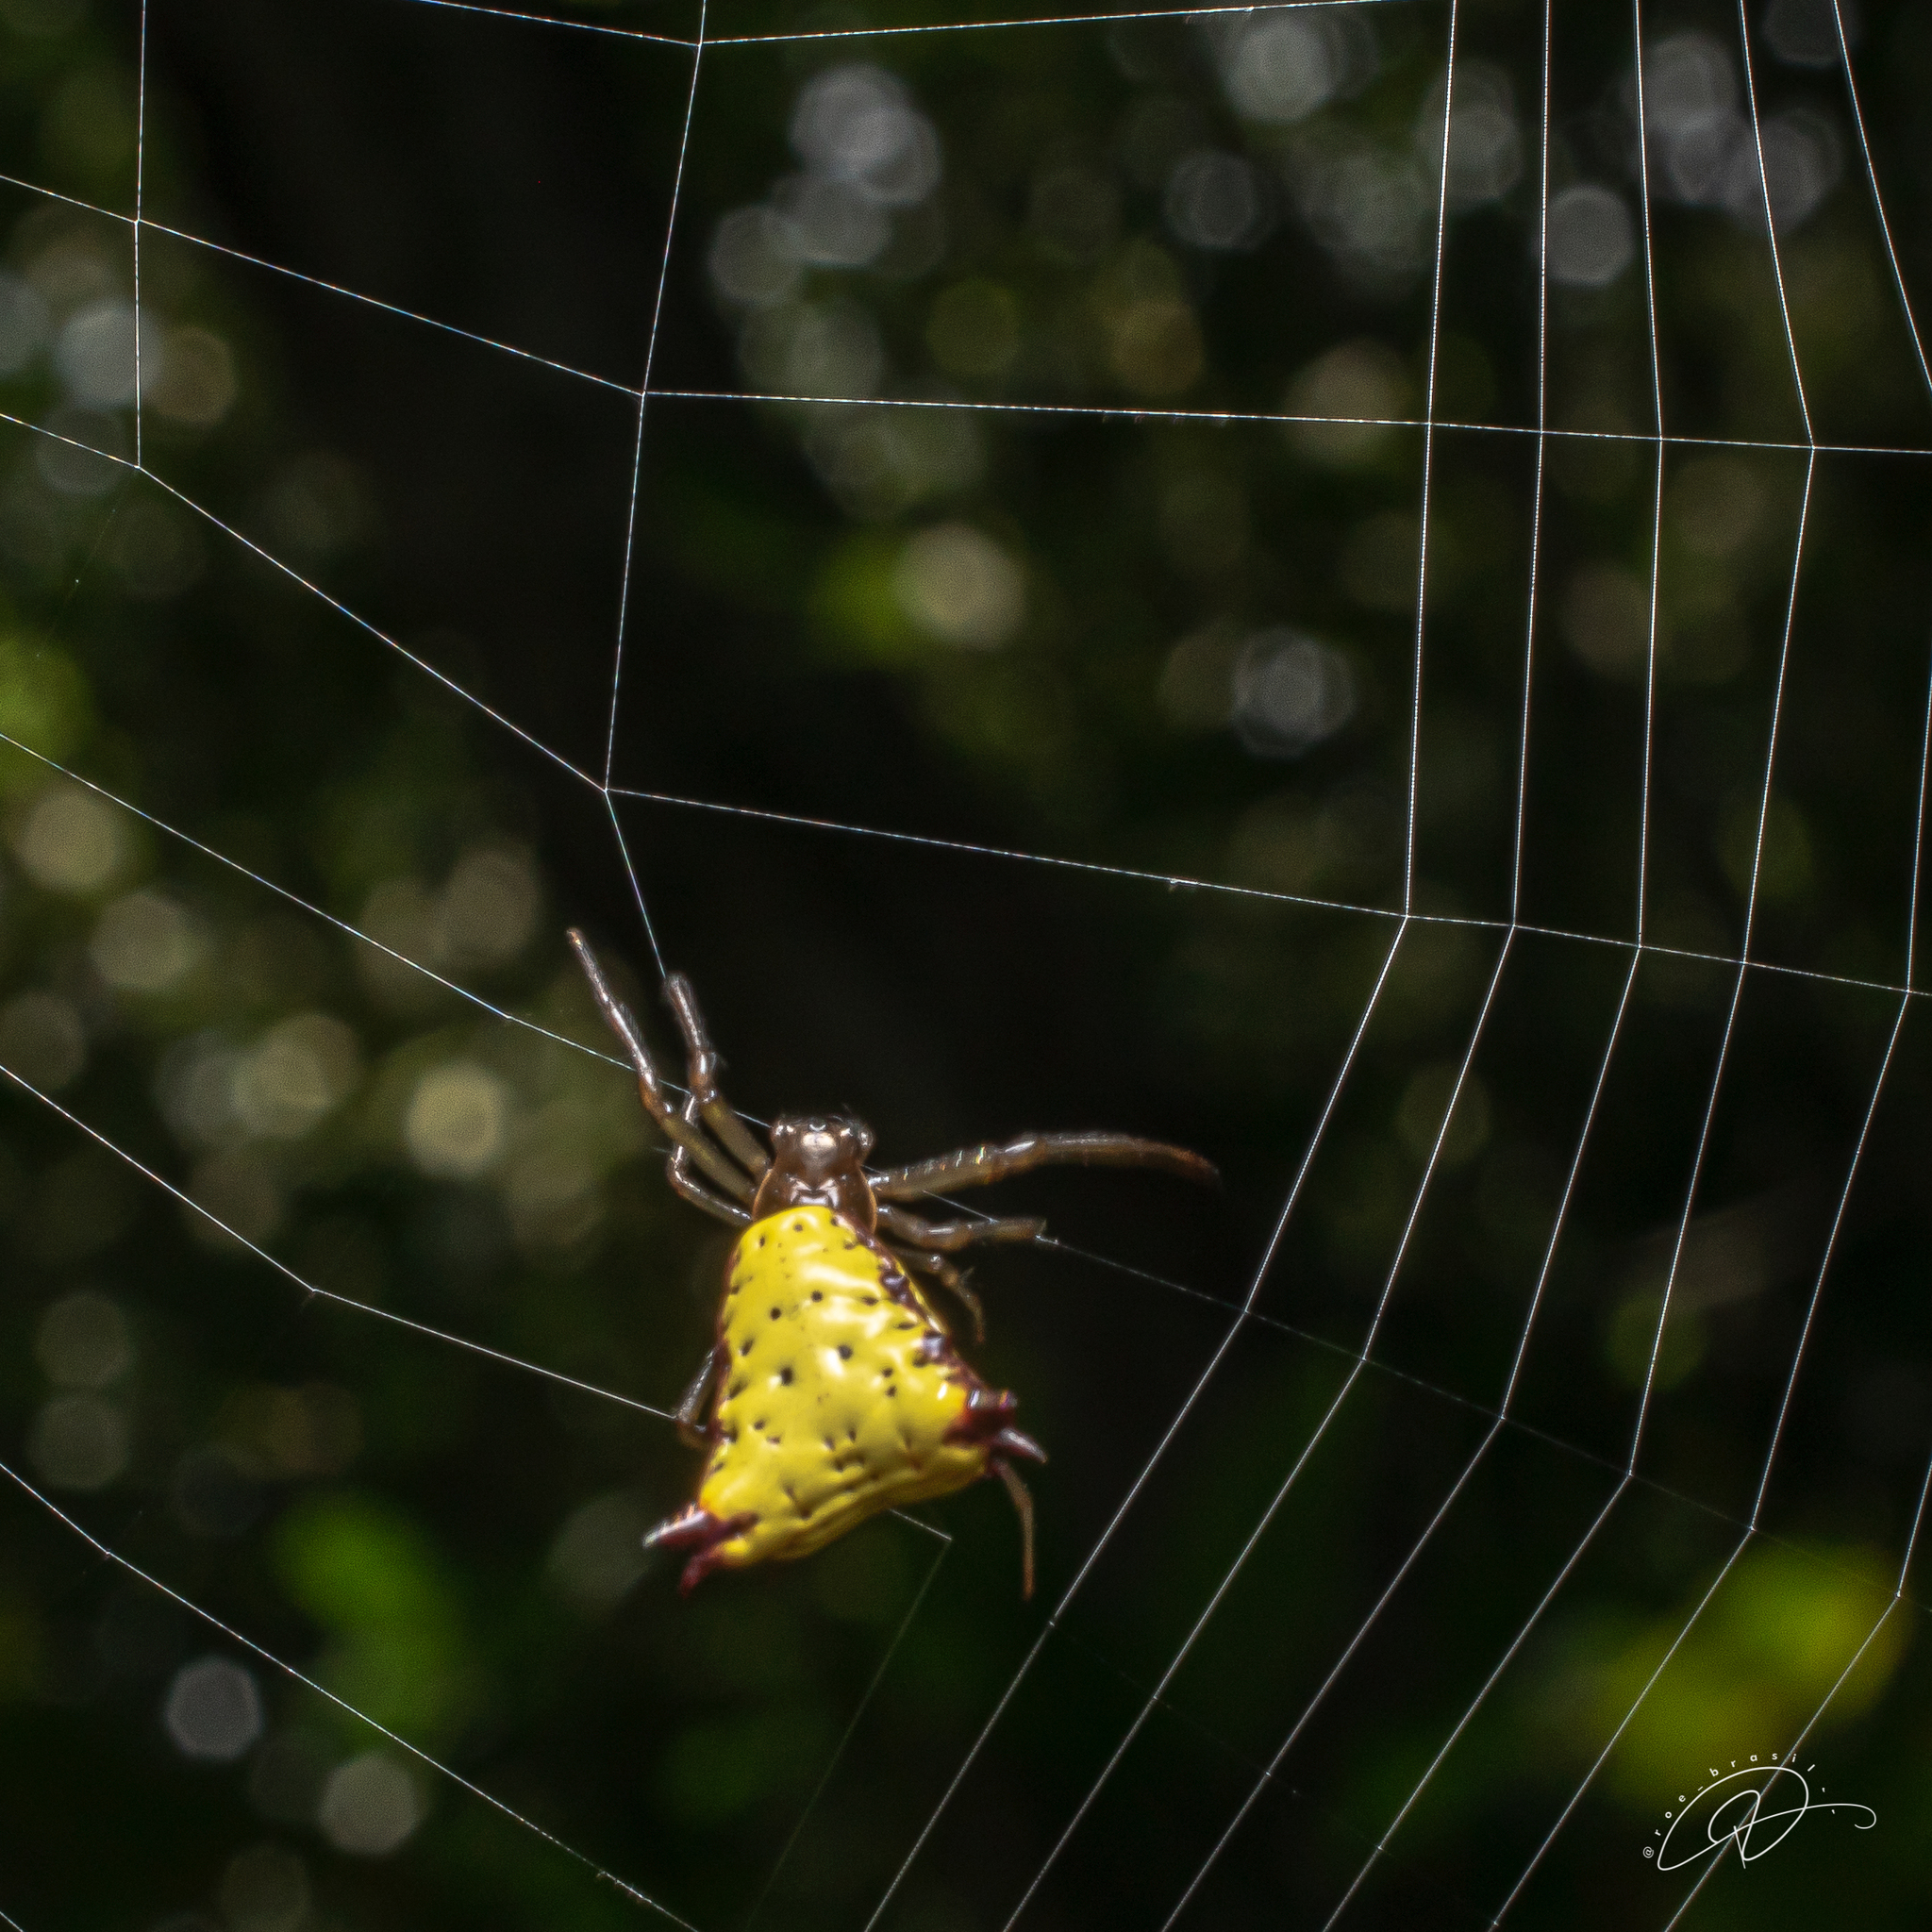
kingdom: Animalia
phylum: Arthropoda
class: Arachnida
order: Araneae
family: Araneidae
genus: Micrathena
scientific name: Micrathena digitata
